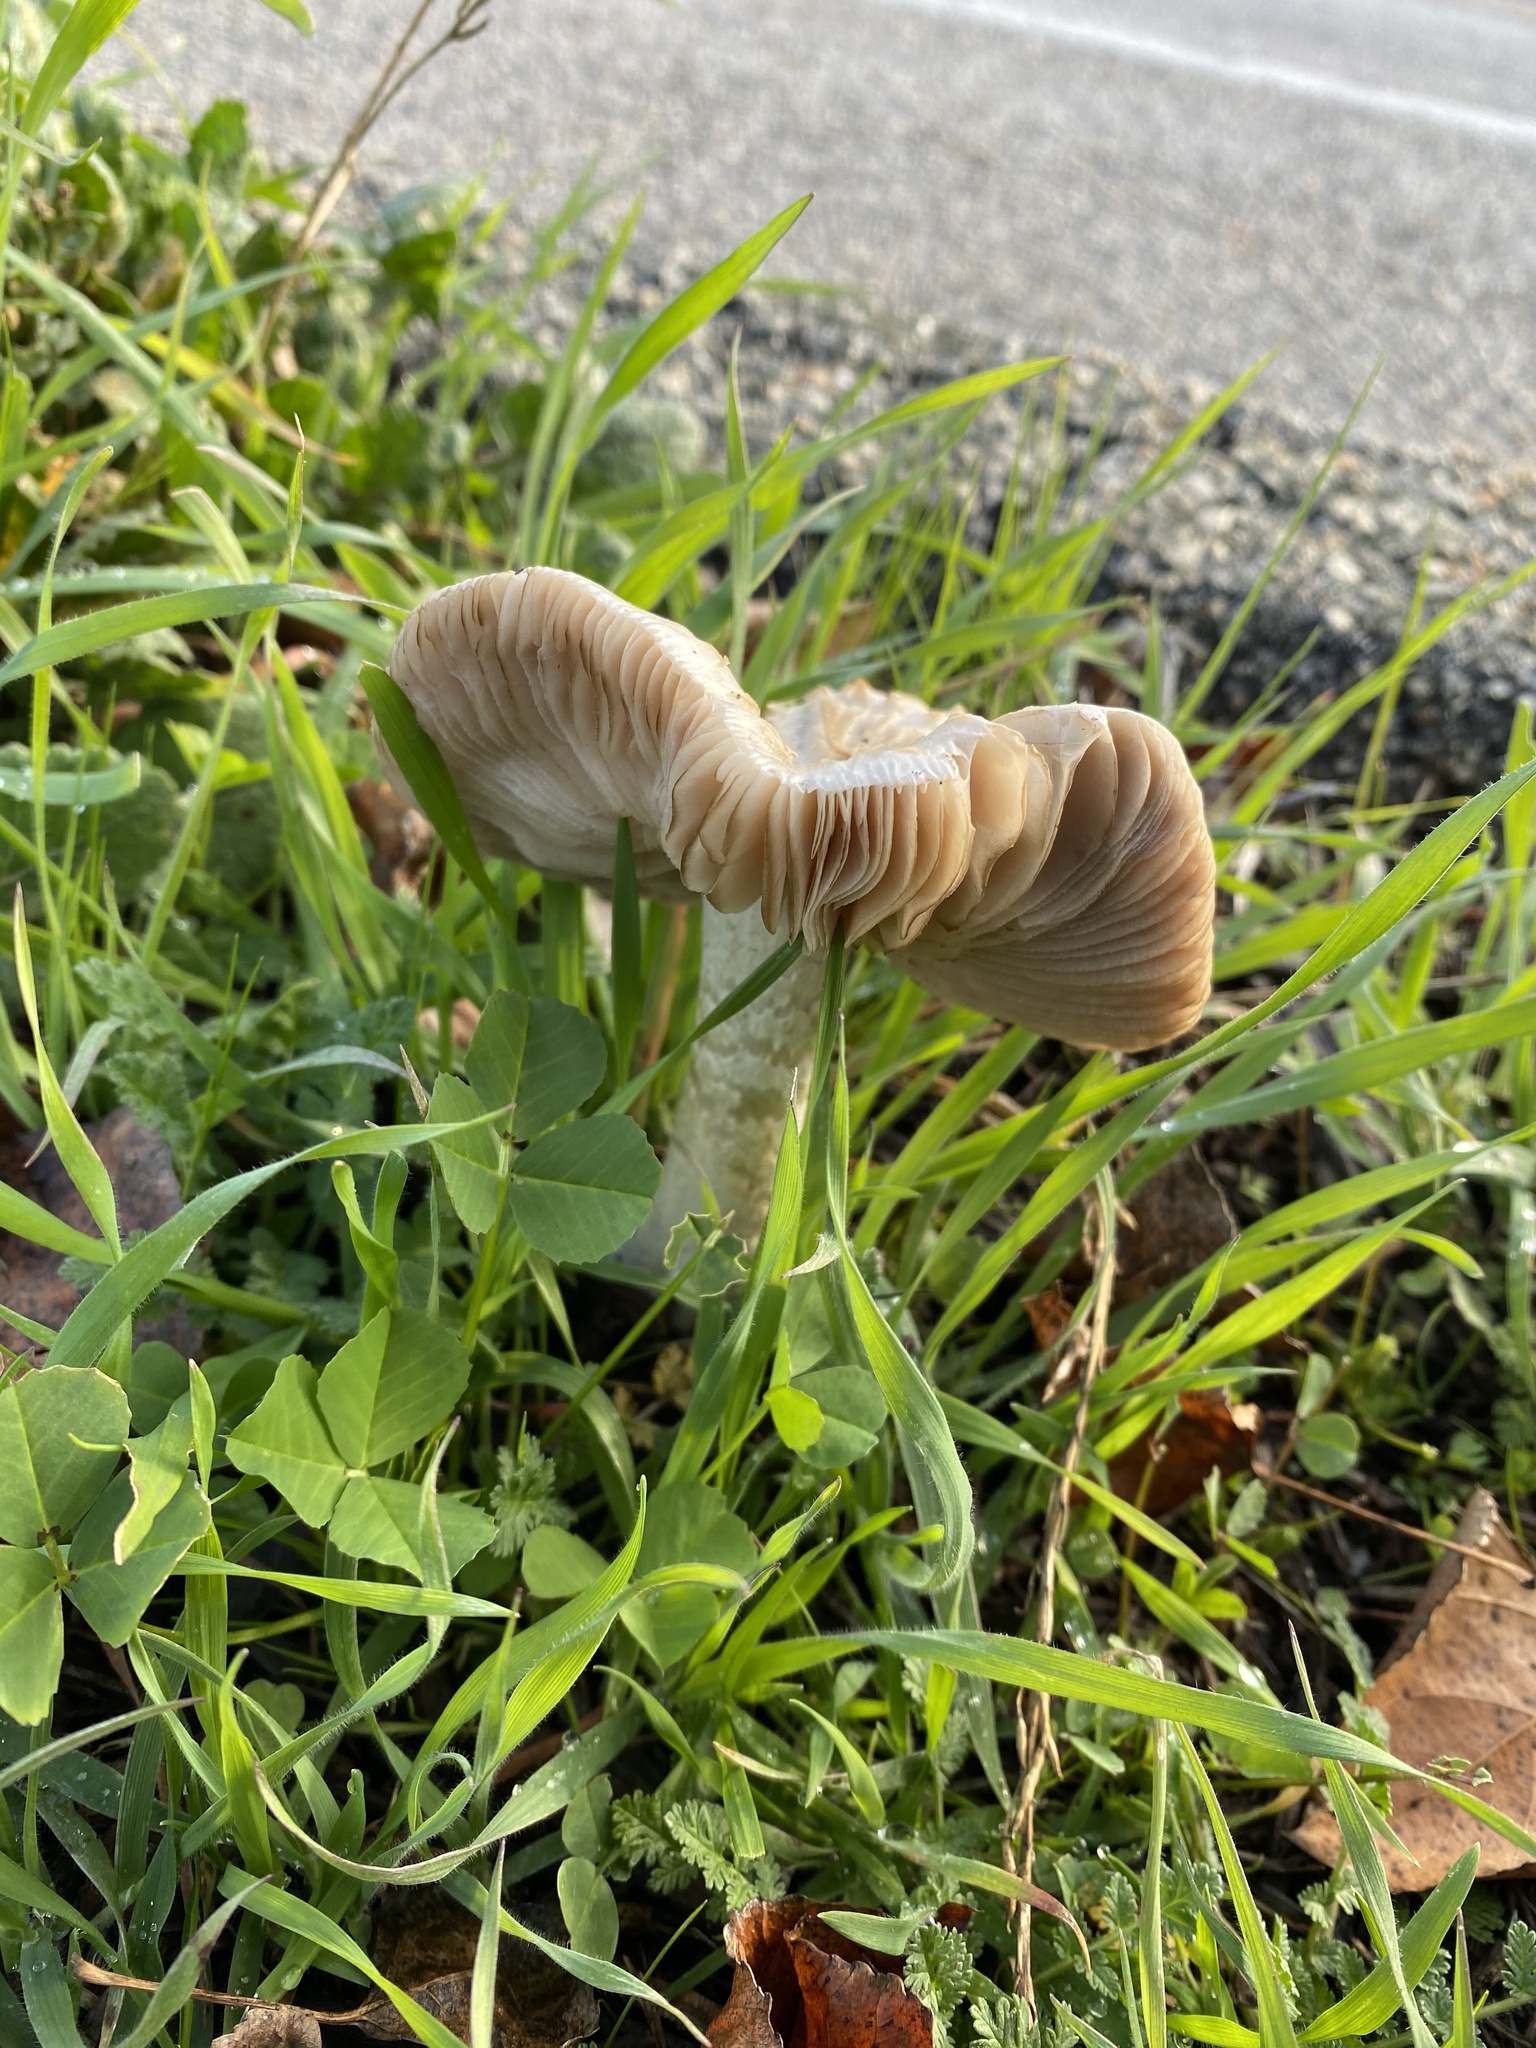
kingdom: Fungi
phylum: Basidiomycota
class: Agaricomycetes
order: Agaricales
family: Pluteaceae
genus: Volvopluteus
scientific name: Volvopluteus gloiocephalus
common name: Stubble rosegill
